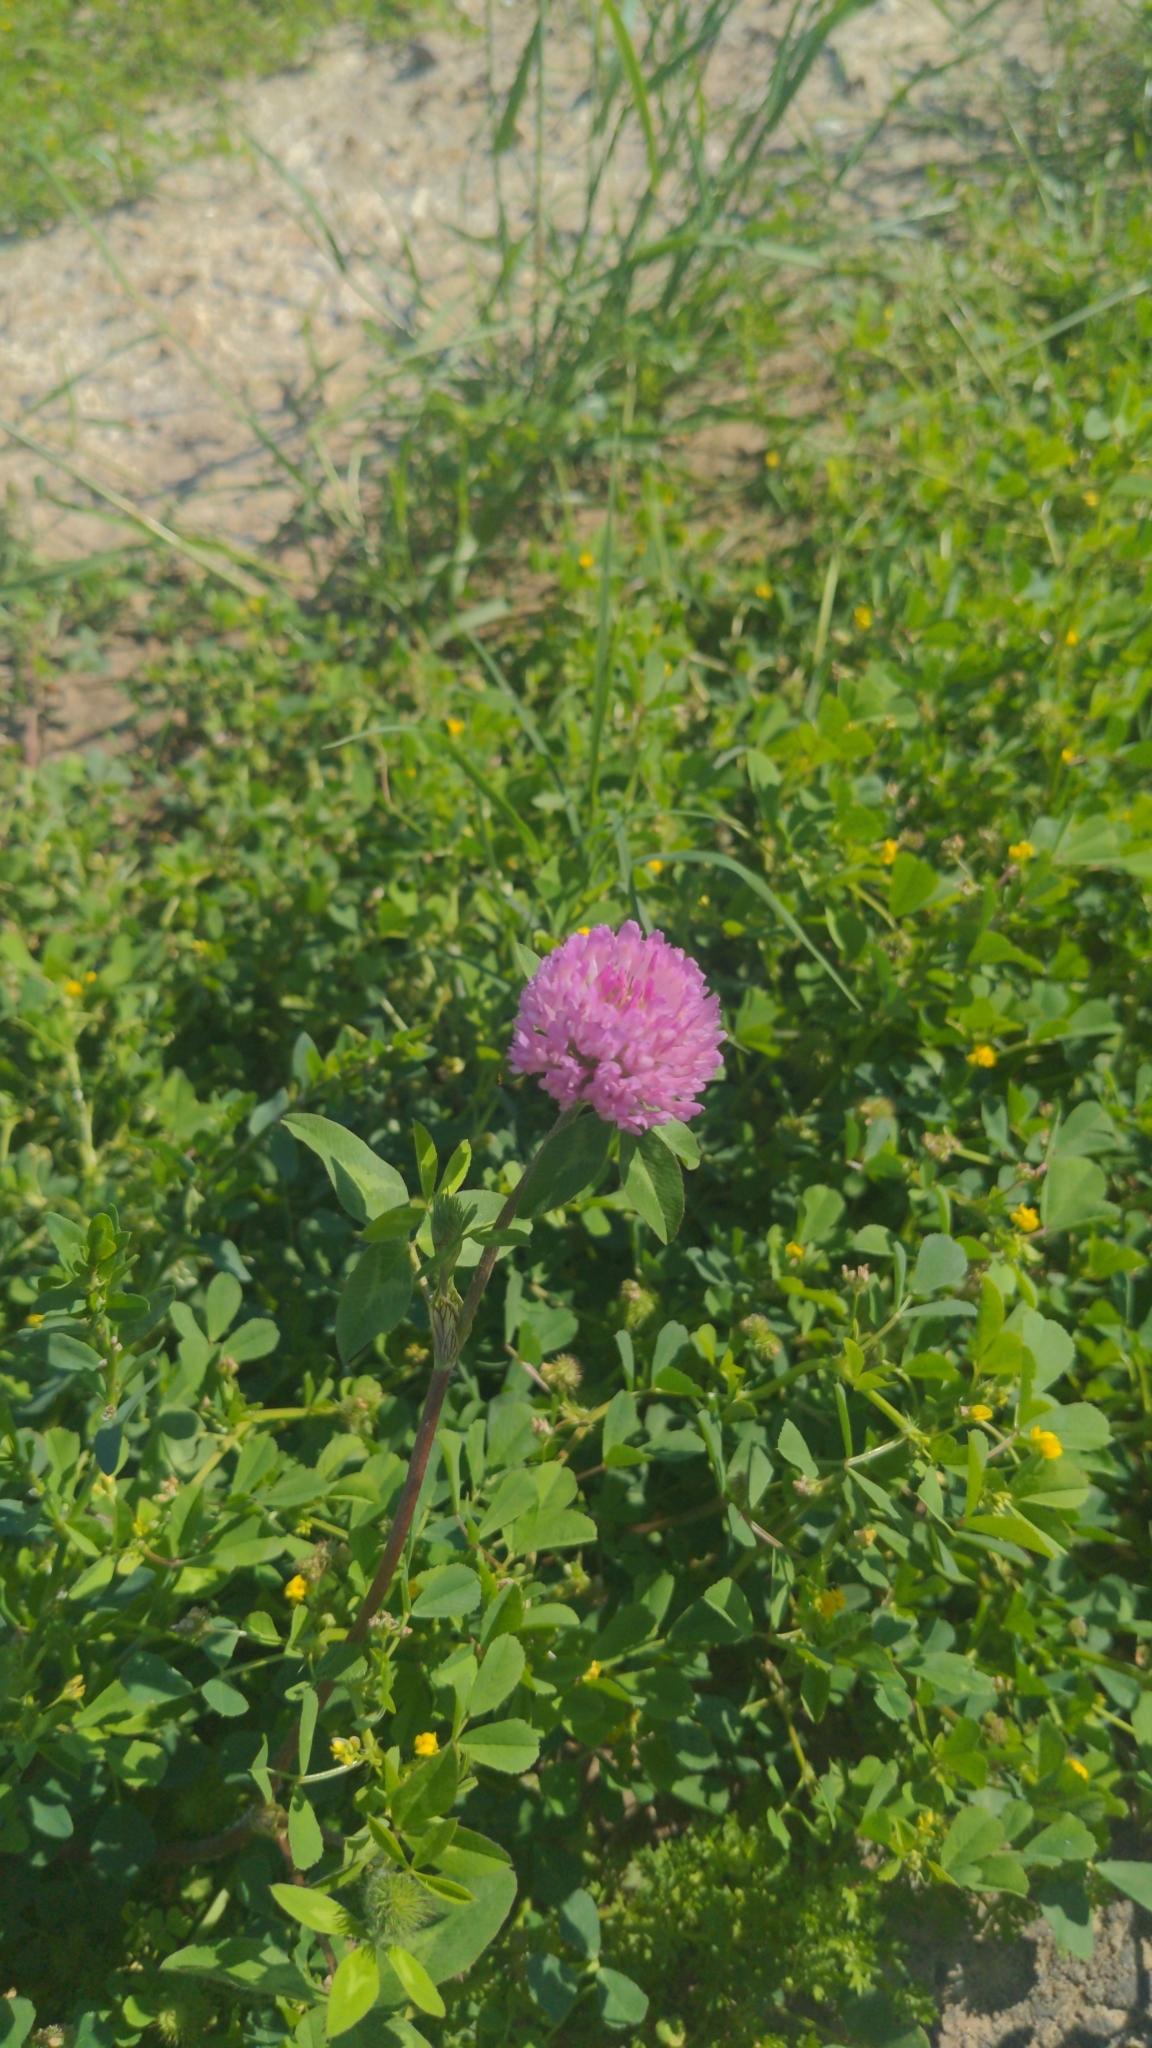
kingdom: Plantae
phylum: Tracheophyta
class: Magnoliopsida
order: Fabales
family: Fabaceae
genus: Trifolium
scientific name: Trifolium pratense
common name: Red clover
